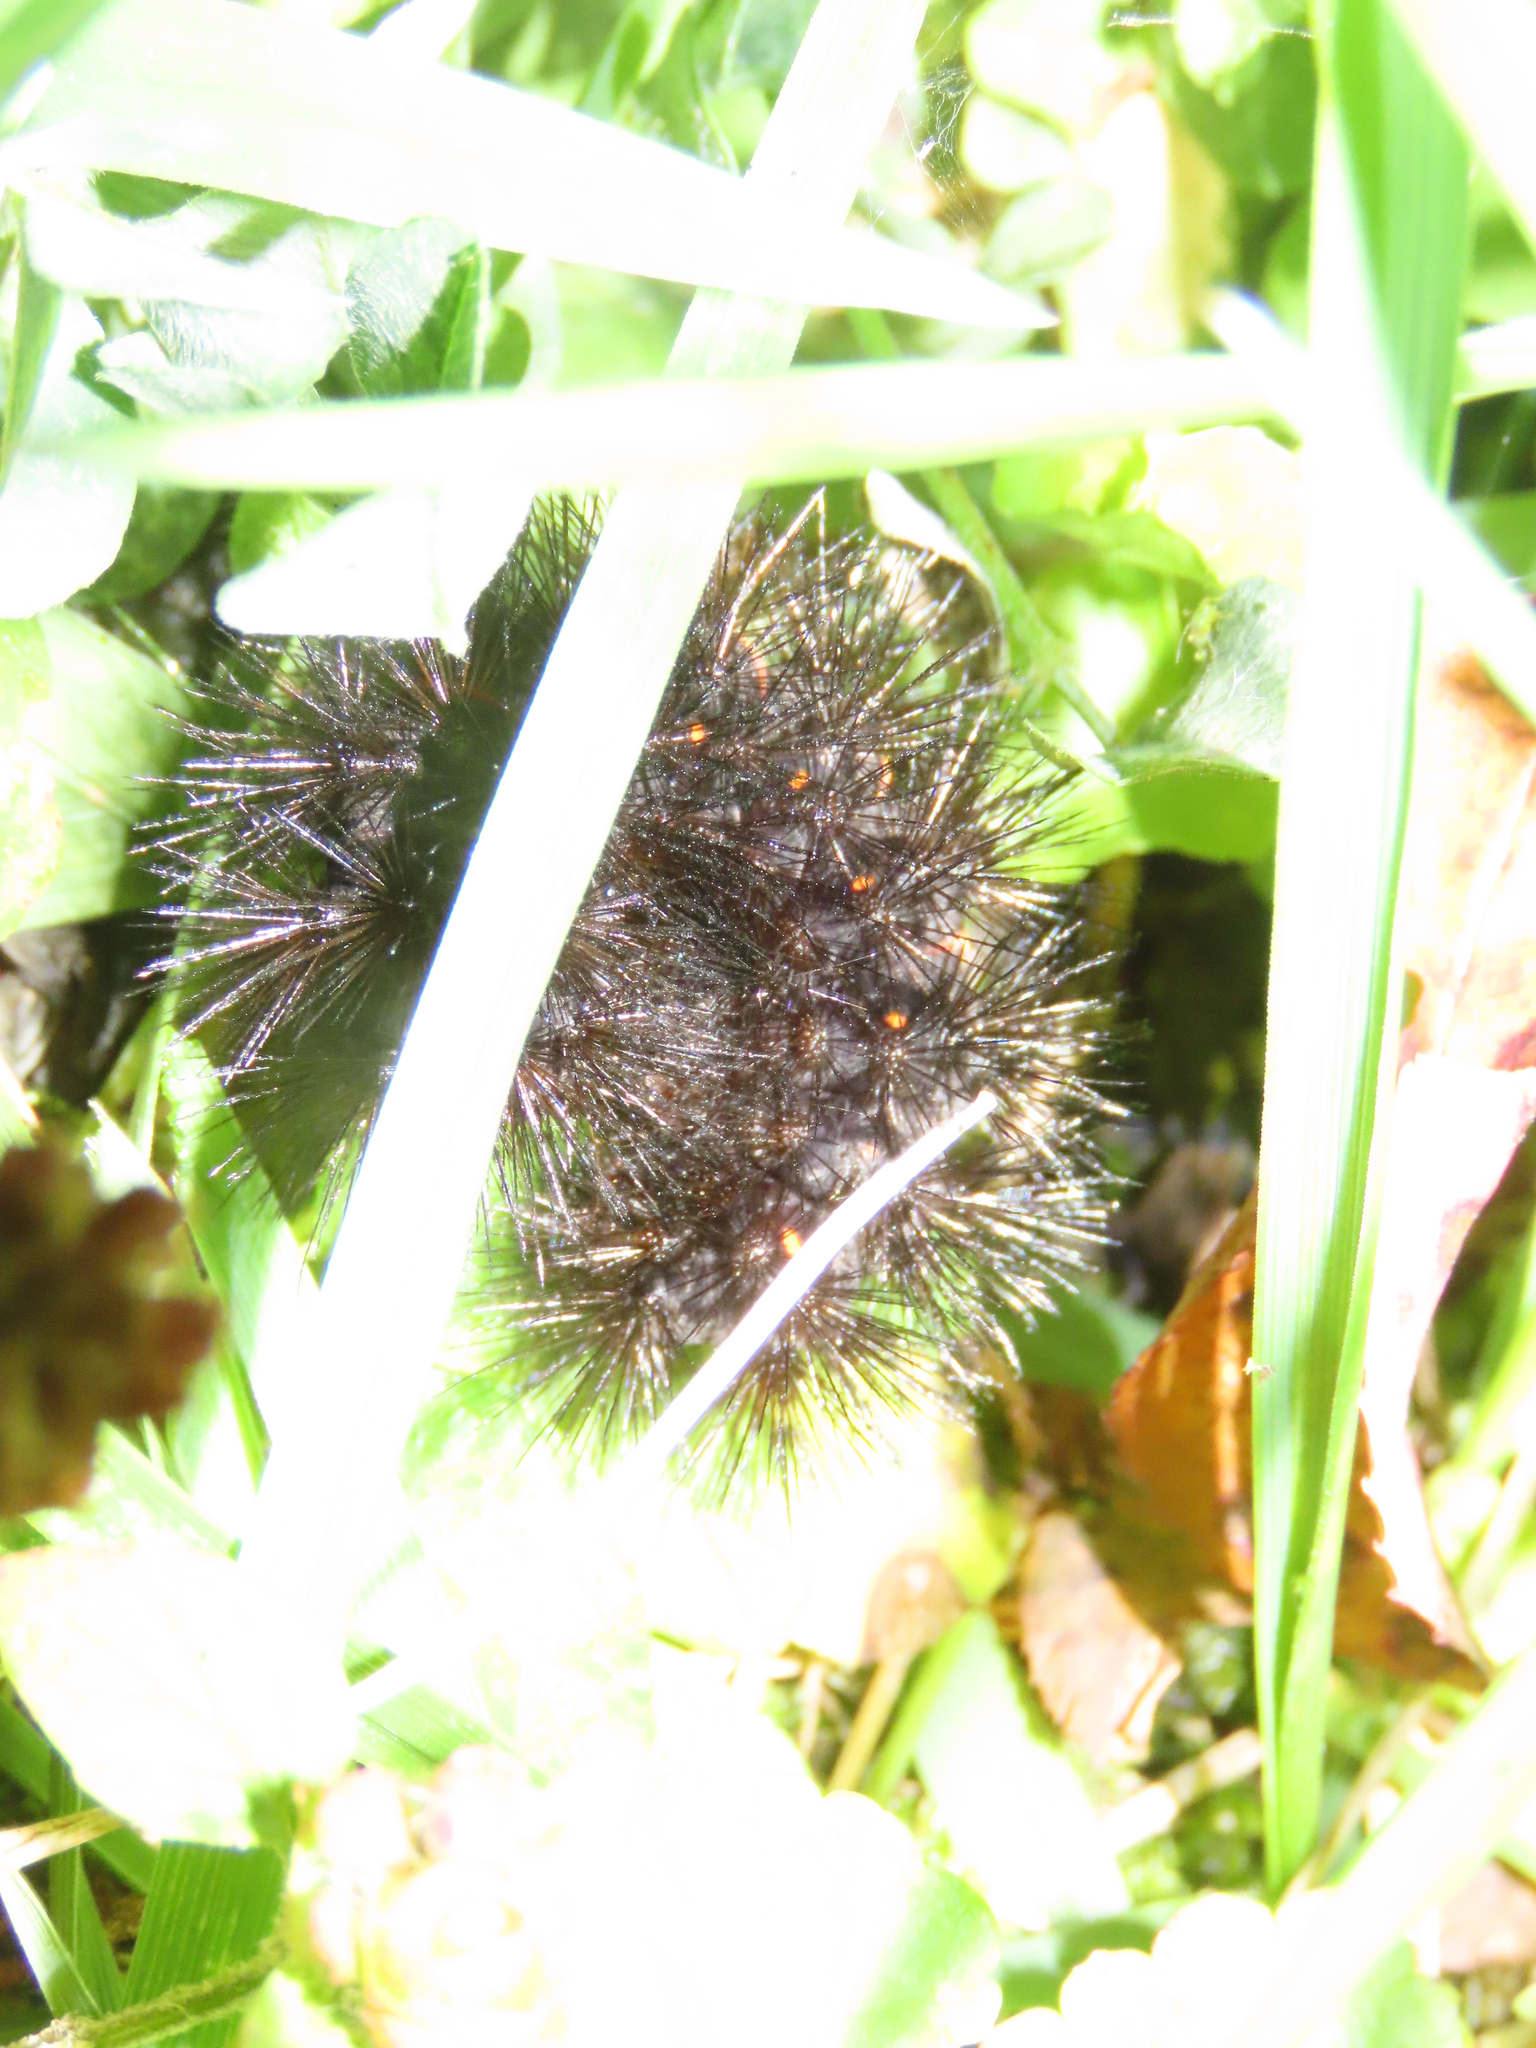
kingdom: Animalia
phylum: Arthropoda
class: Insecta
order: Lepidoptera
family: Erebidae
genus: Hypercompe
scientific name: Hypercompe scribonia
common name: Giant leopard moth
